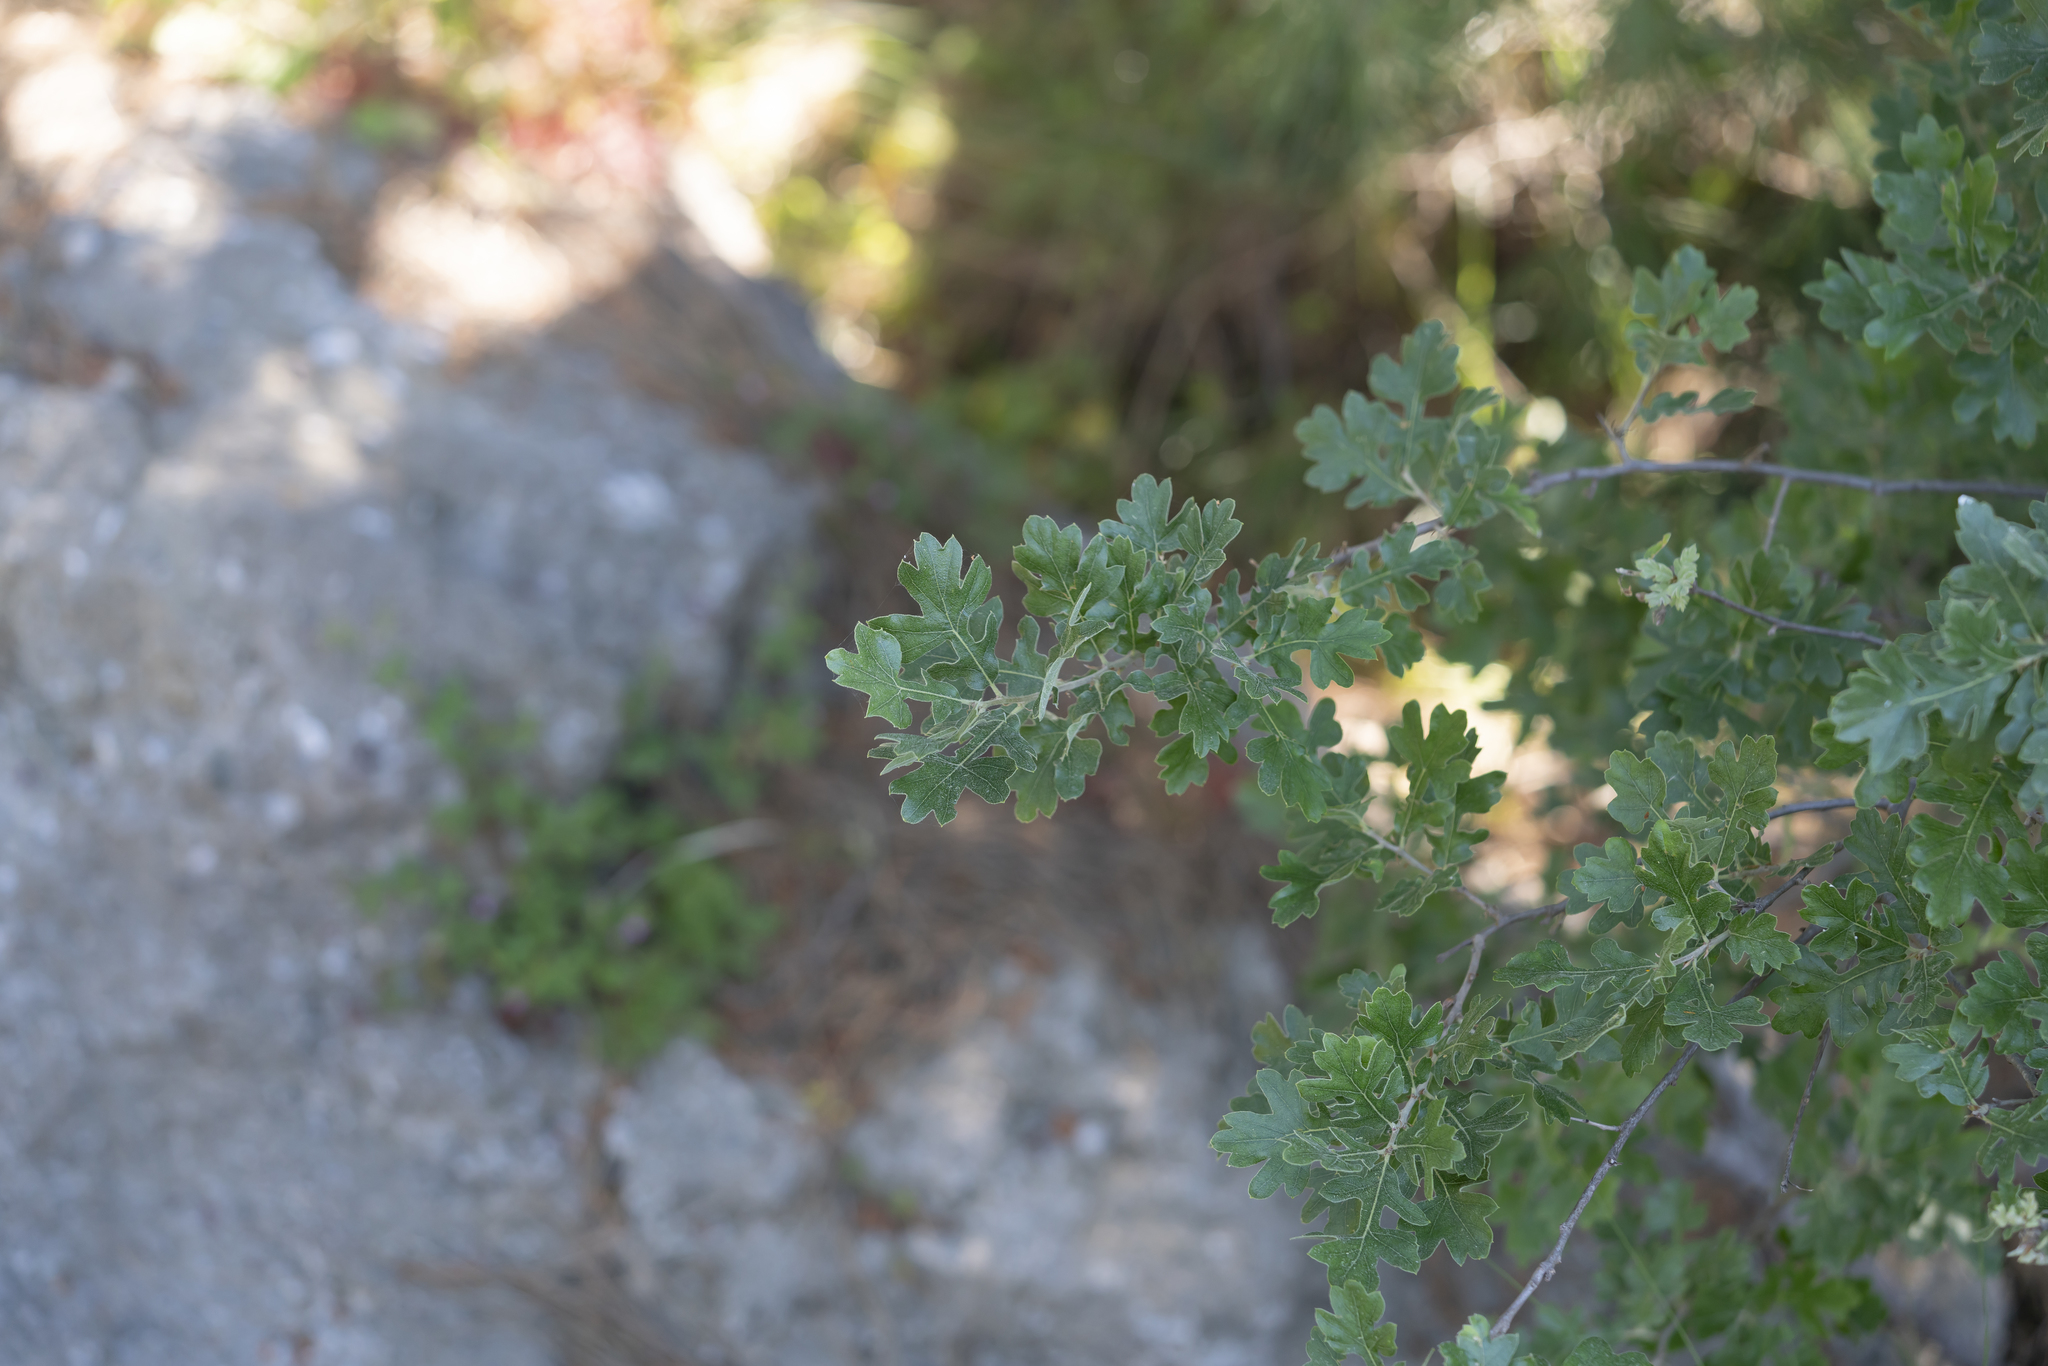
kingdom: Plantae
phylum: Tracheophyta
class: Magnoliopsida
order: Rosales
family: Rosaceae
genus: Crataegus
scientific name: Crataegus azarolus
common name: Azarole
